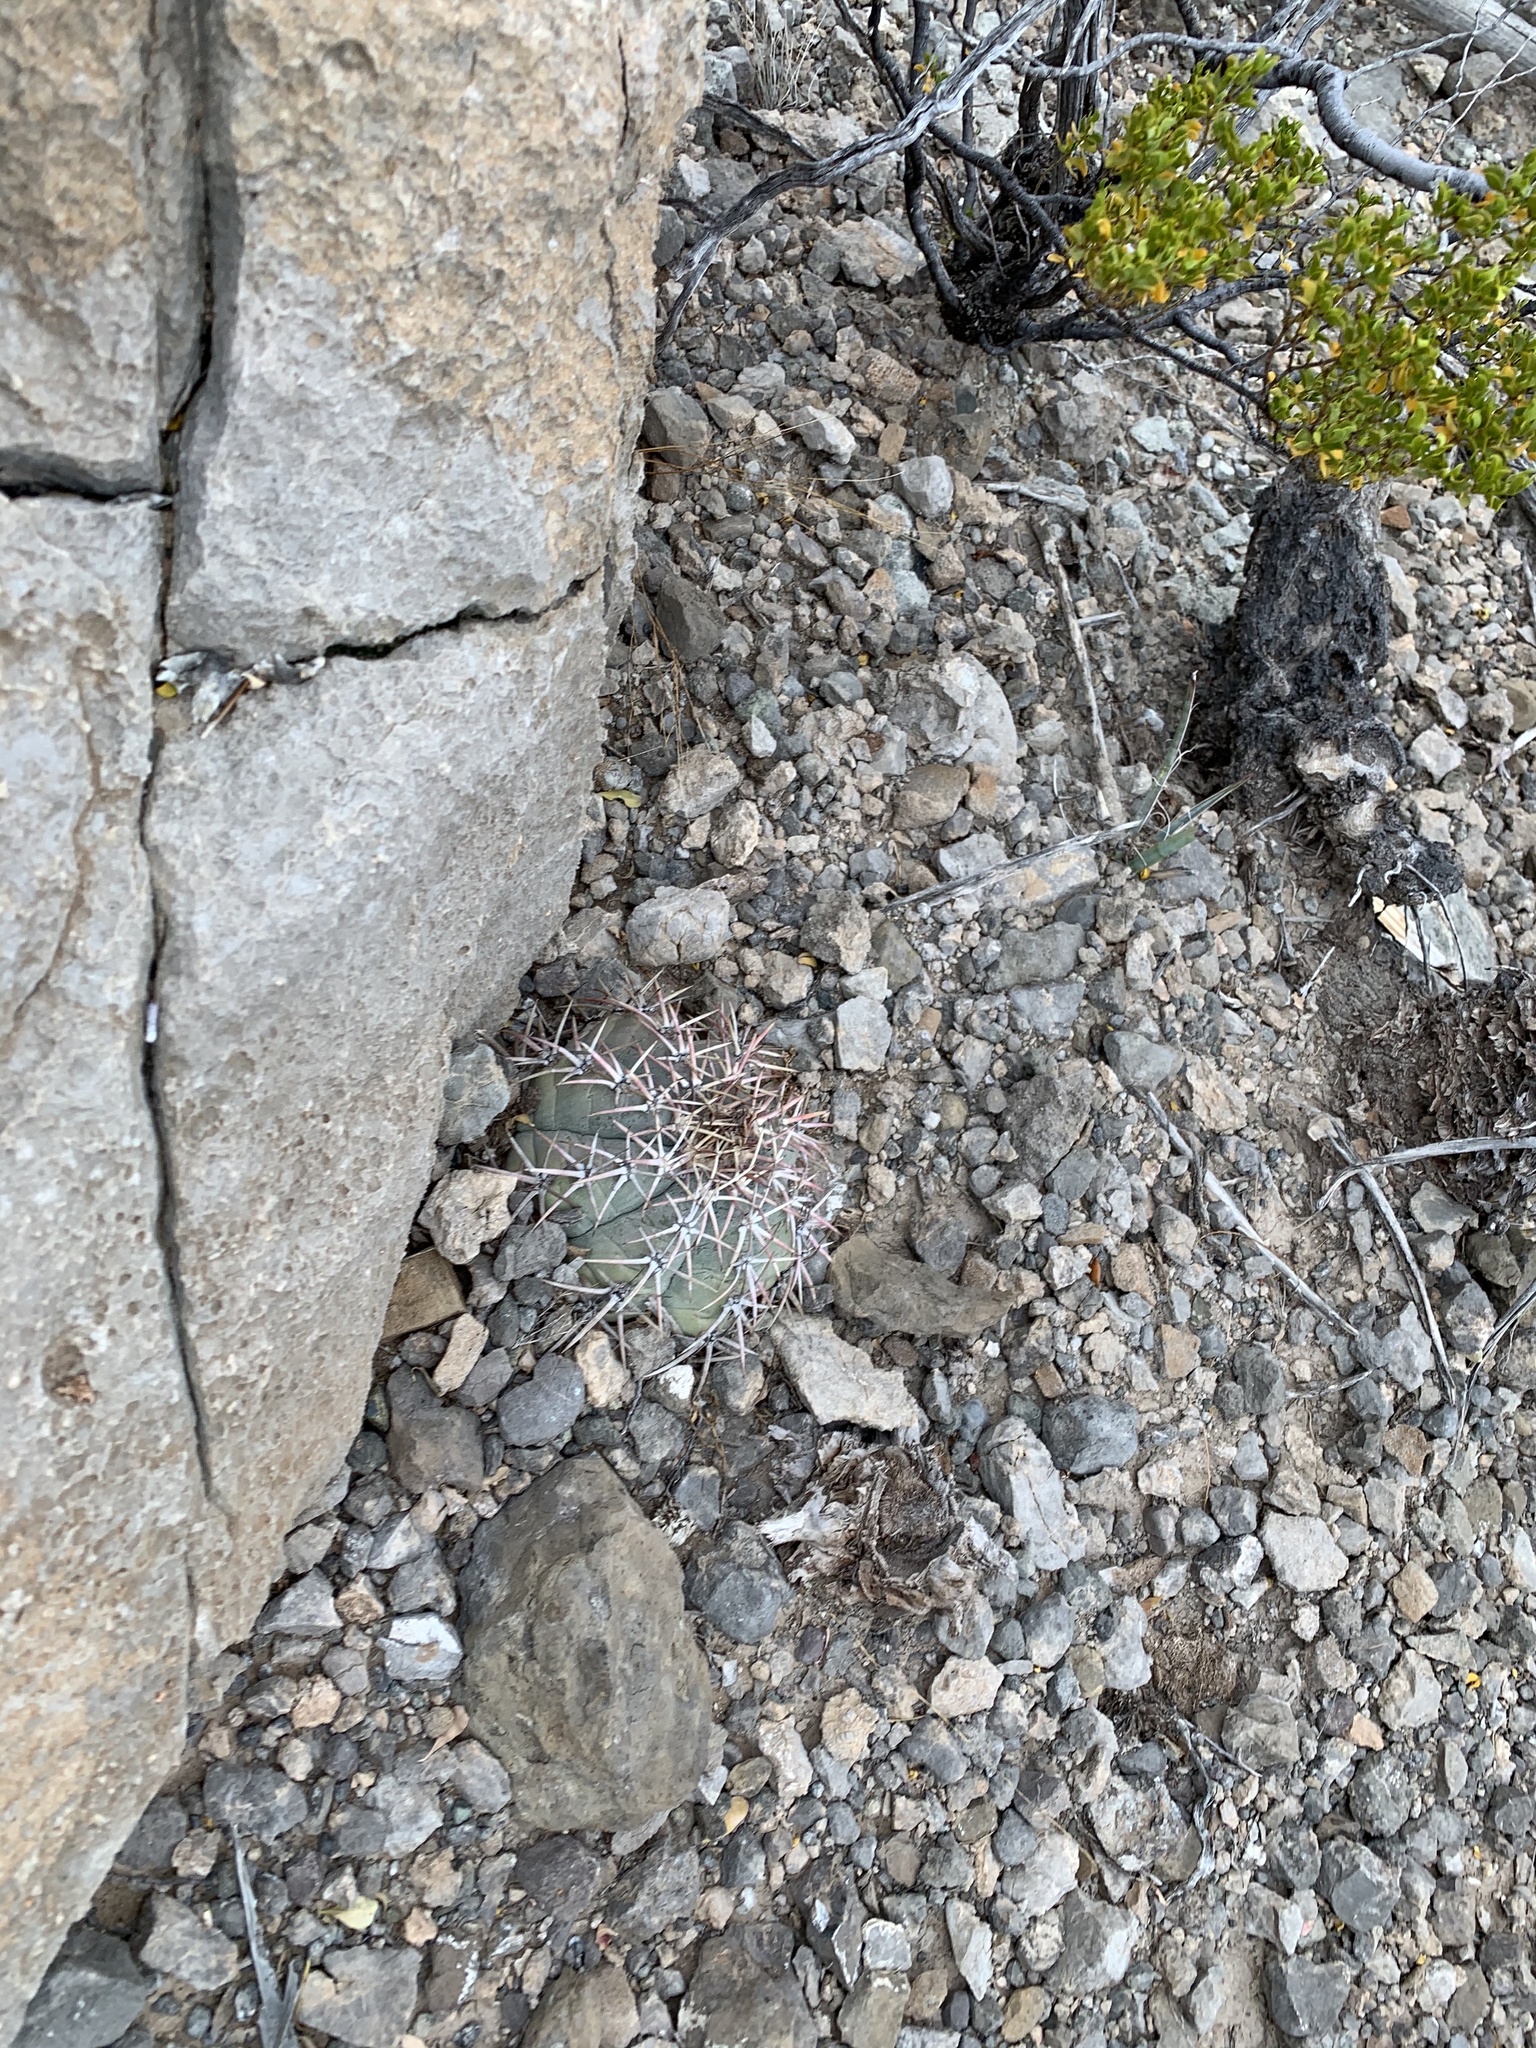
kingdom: Plantae
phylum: Tracheophyta
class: Magnoliopsida
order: Caryophyllales
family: Cactaceae
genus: Echinocactus
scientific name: Echinocactus horizonthalonius
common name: Devilshead
